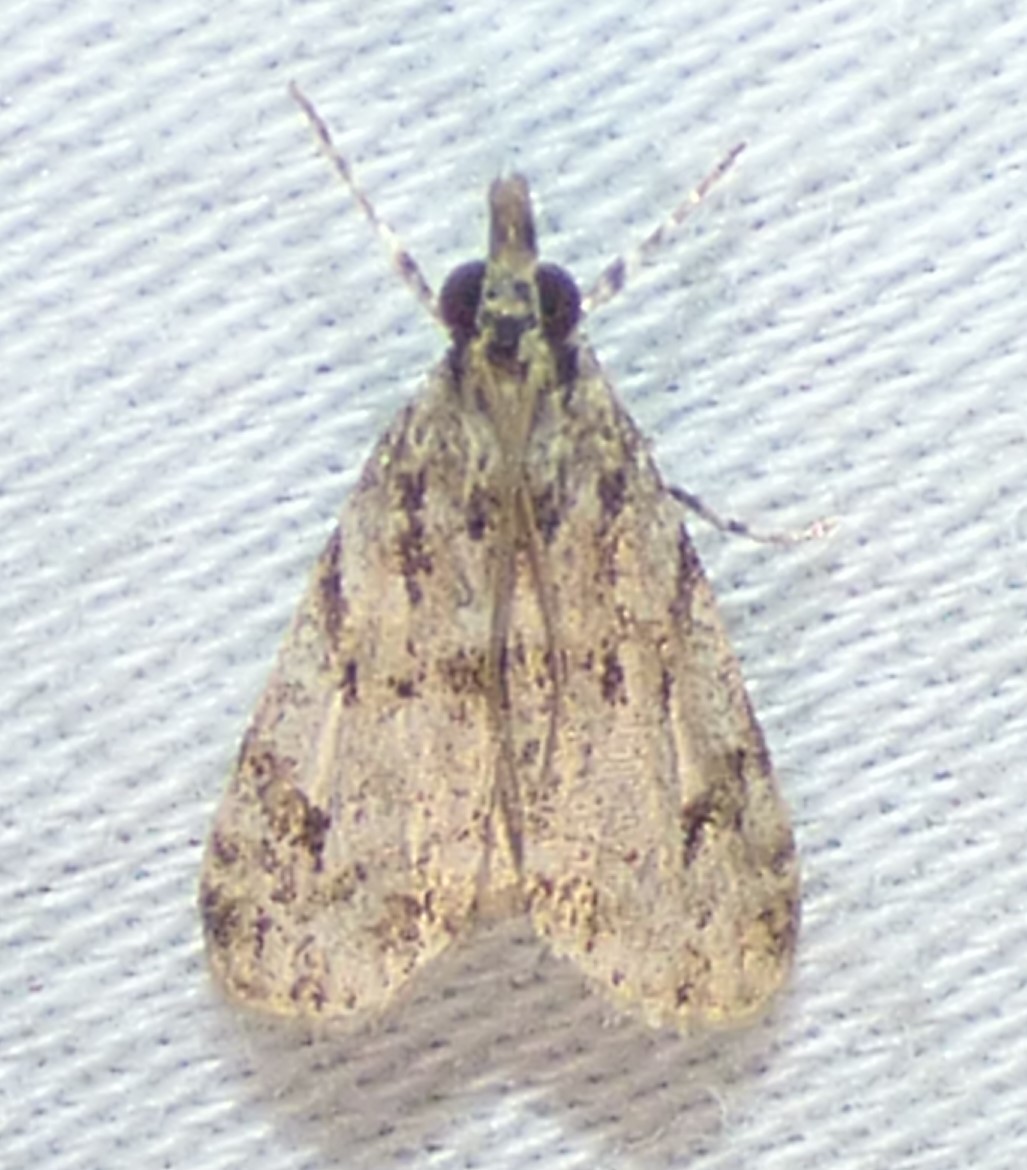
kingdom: Animalia
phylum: Arthropoda
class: Insecta
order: Lepidoptera
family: Crambidae
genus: Eudonia
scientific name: Eudonia heterosalis
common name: Mcdunnough's eudonia
